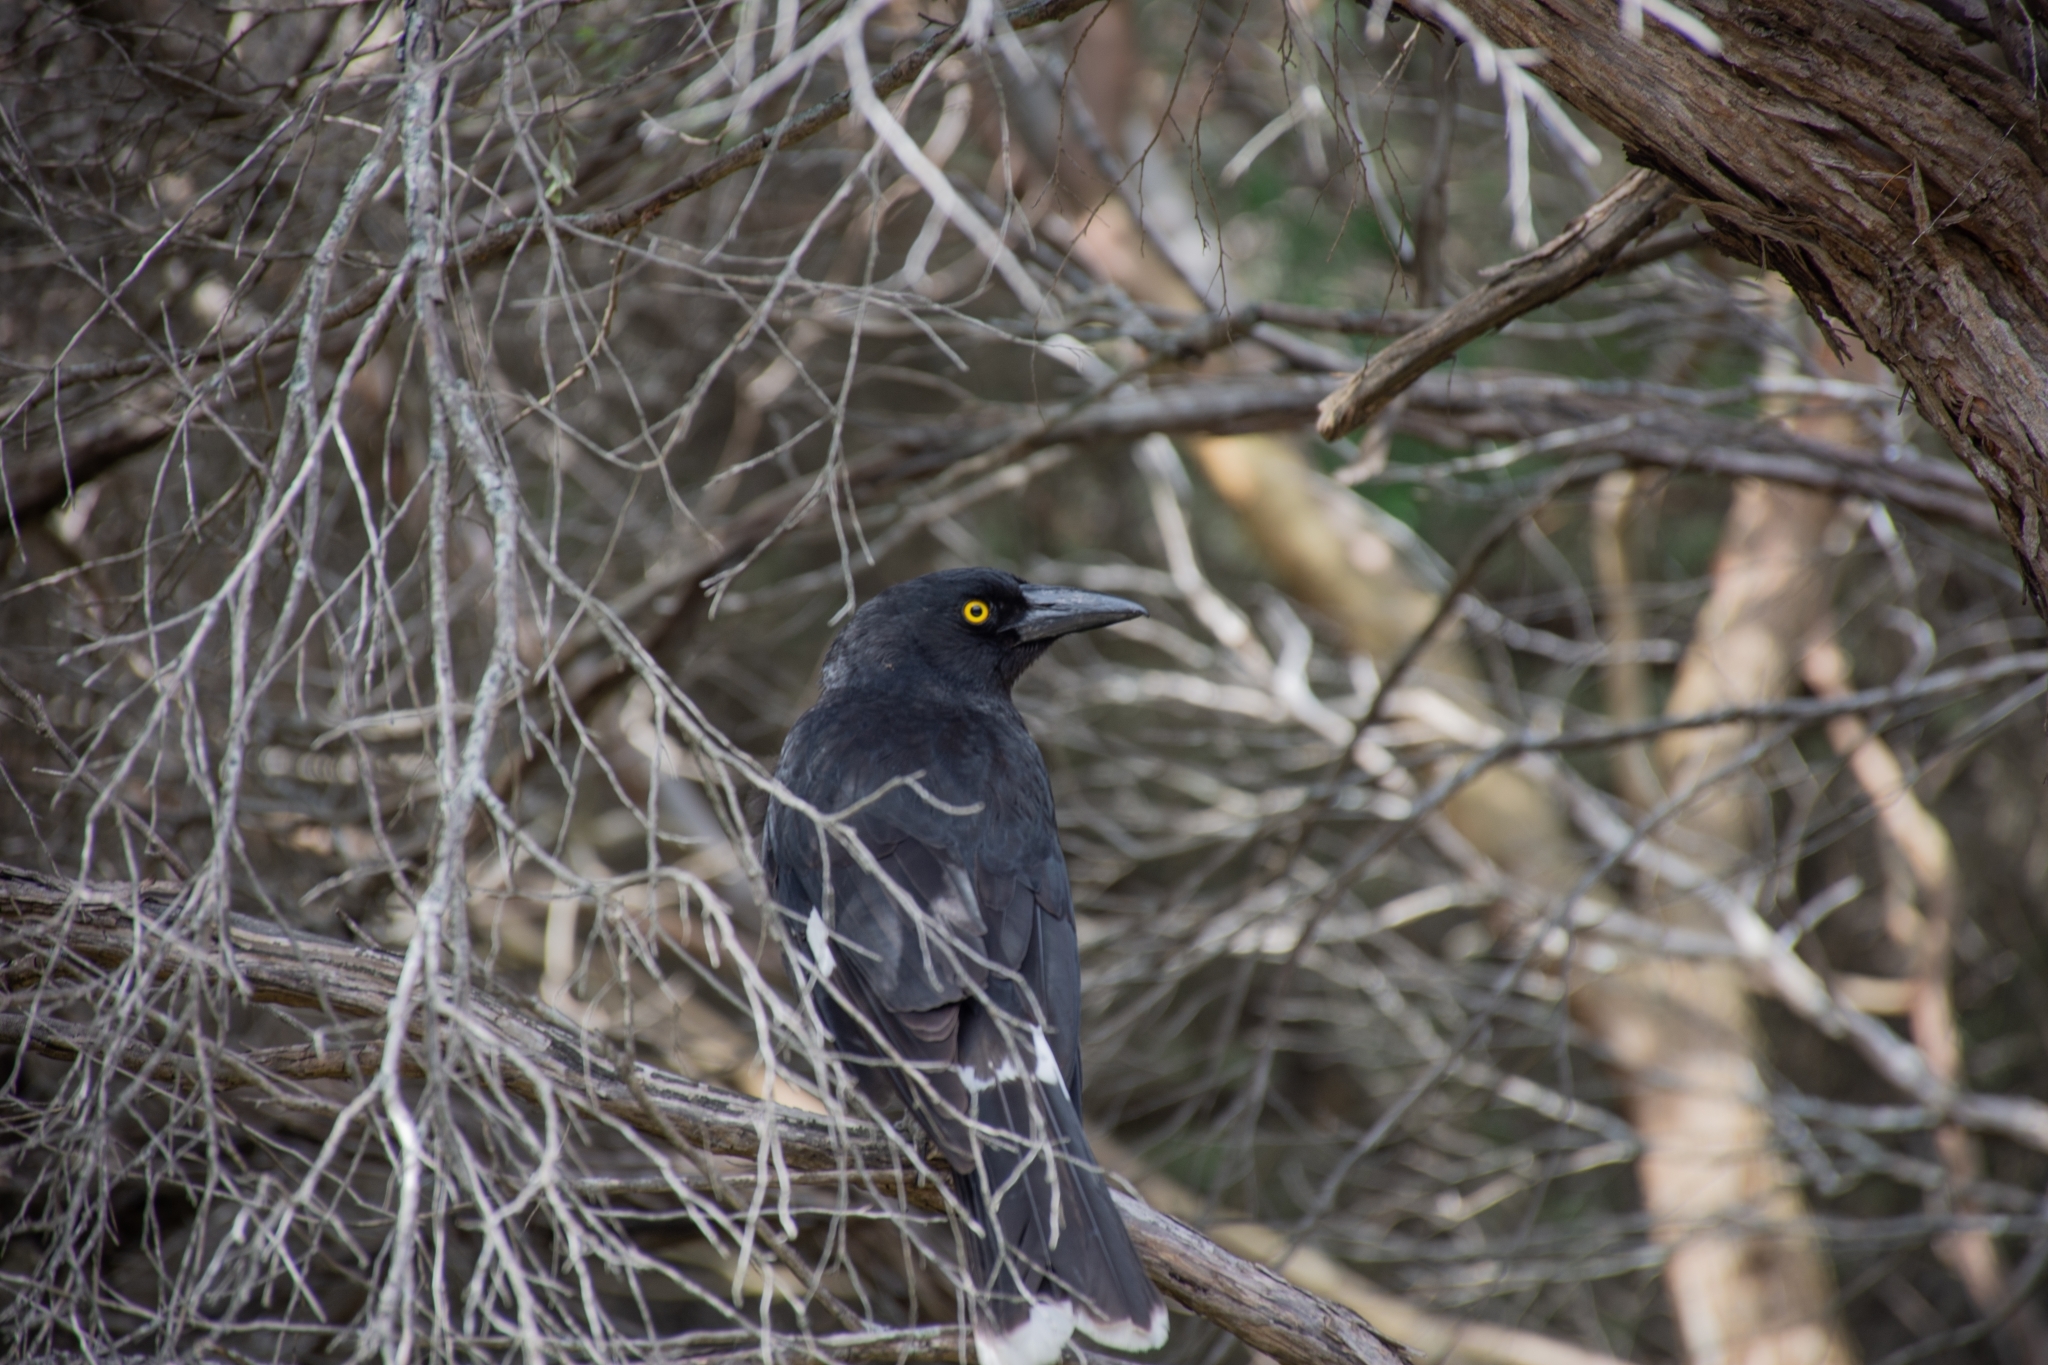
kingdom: Animalia
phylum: Chordata
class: Aves
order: Passeriformes
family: Cracticidae
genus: Strepera
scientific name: Strepera graculina
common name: Pied currawong
